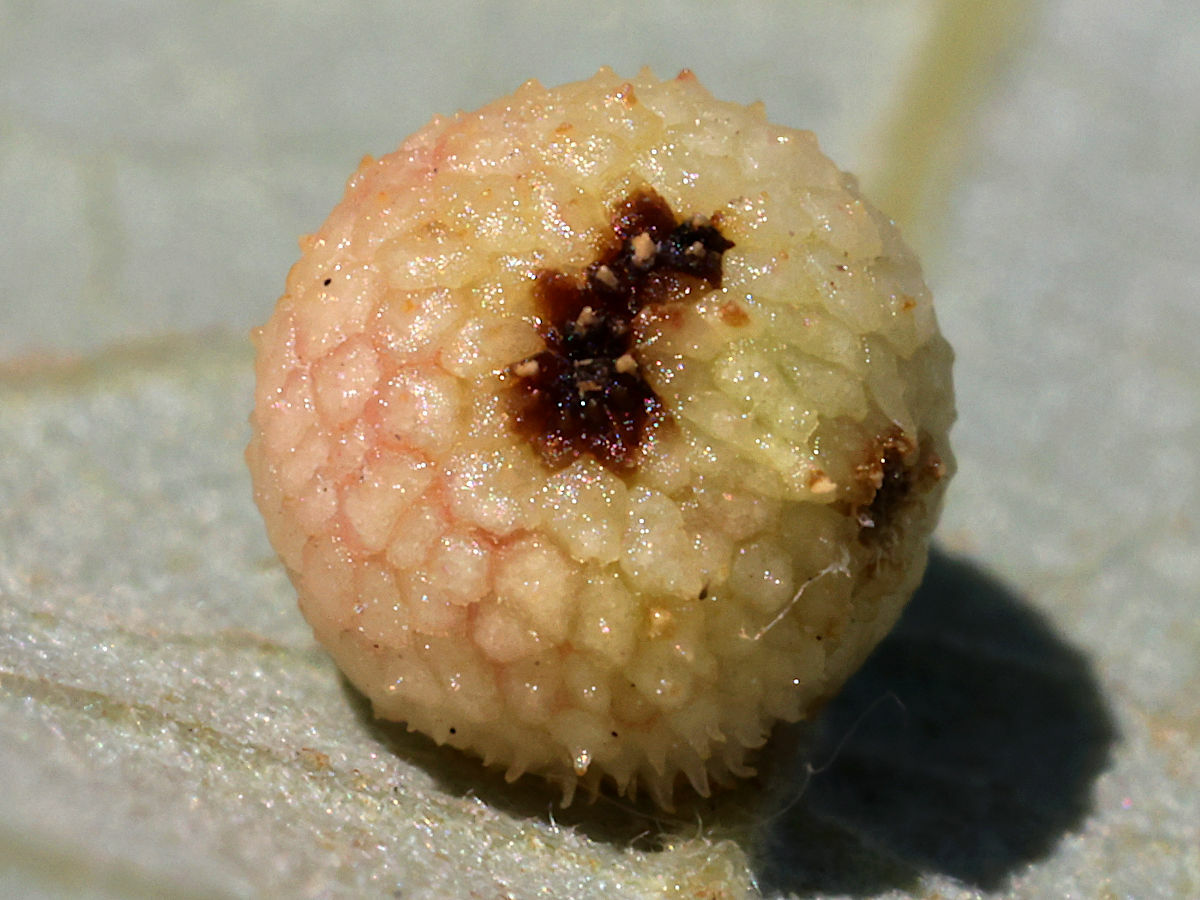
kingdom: Animalia
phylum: Arthropoda
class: Insecta
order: Hymenoptera
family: Cynipidae
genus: Acraspis
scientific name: Acraspis quercushirta
